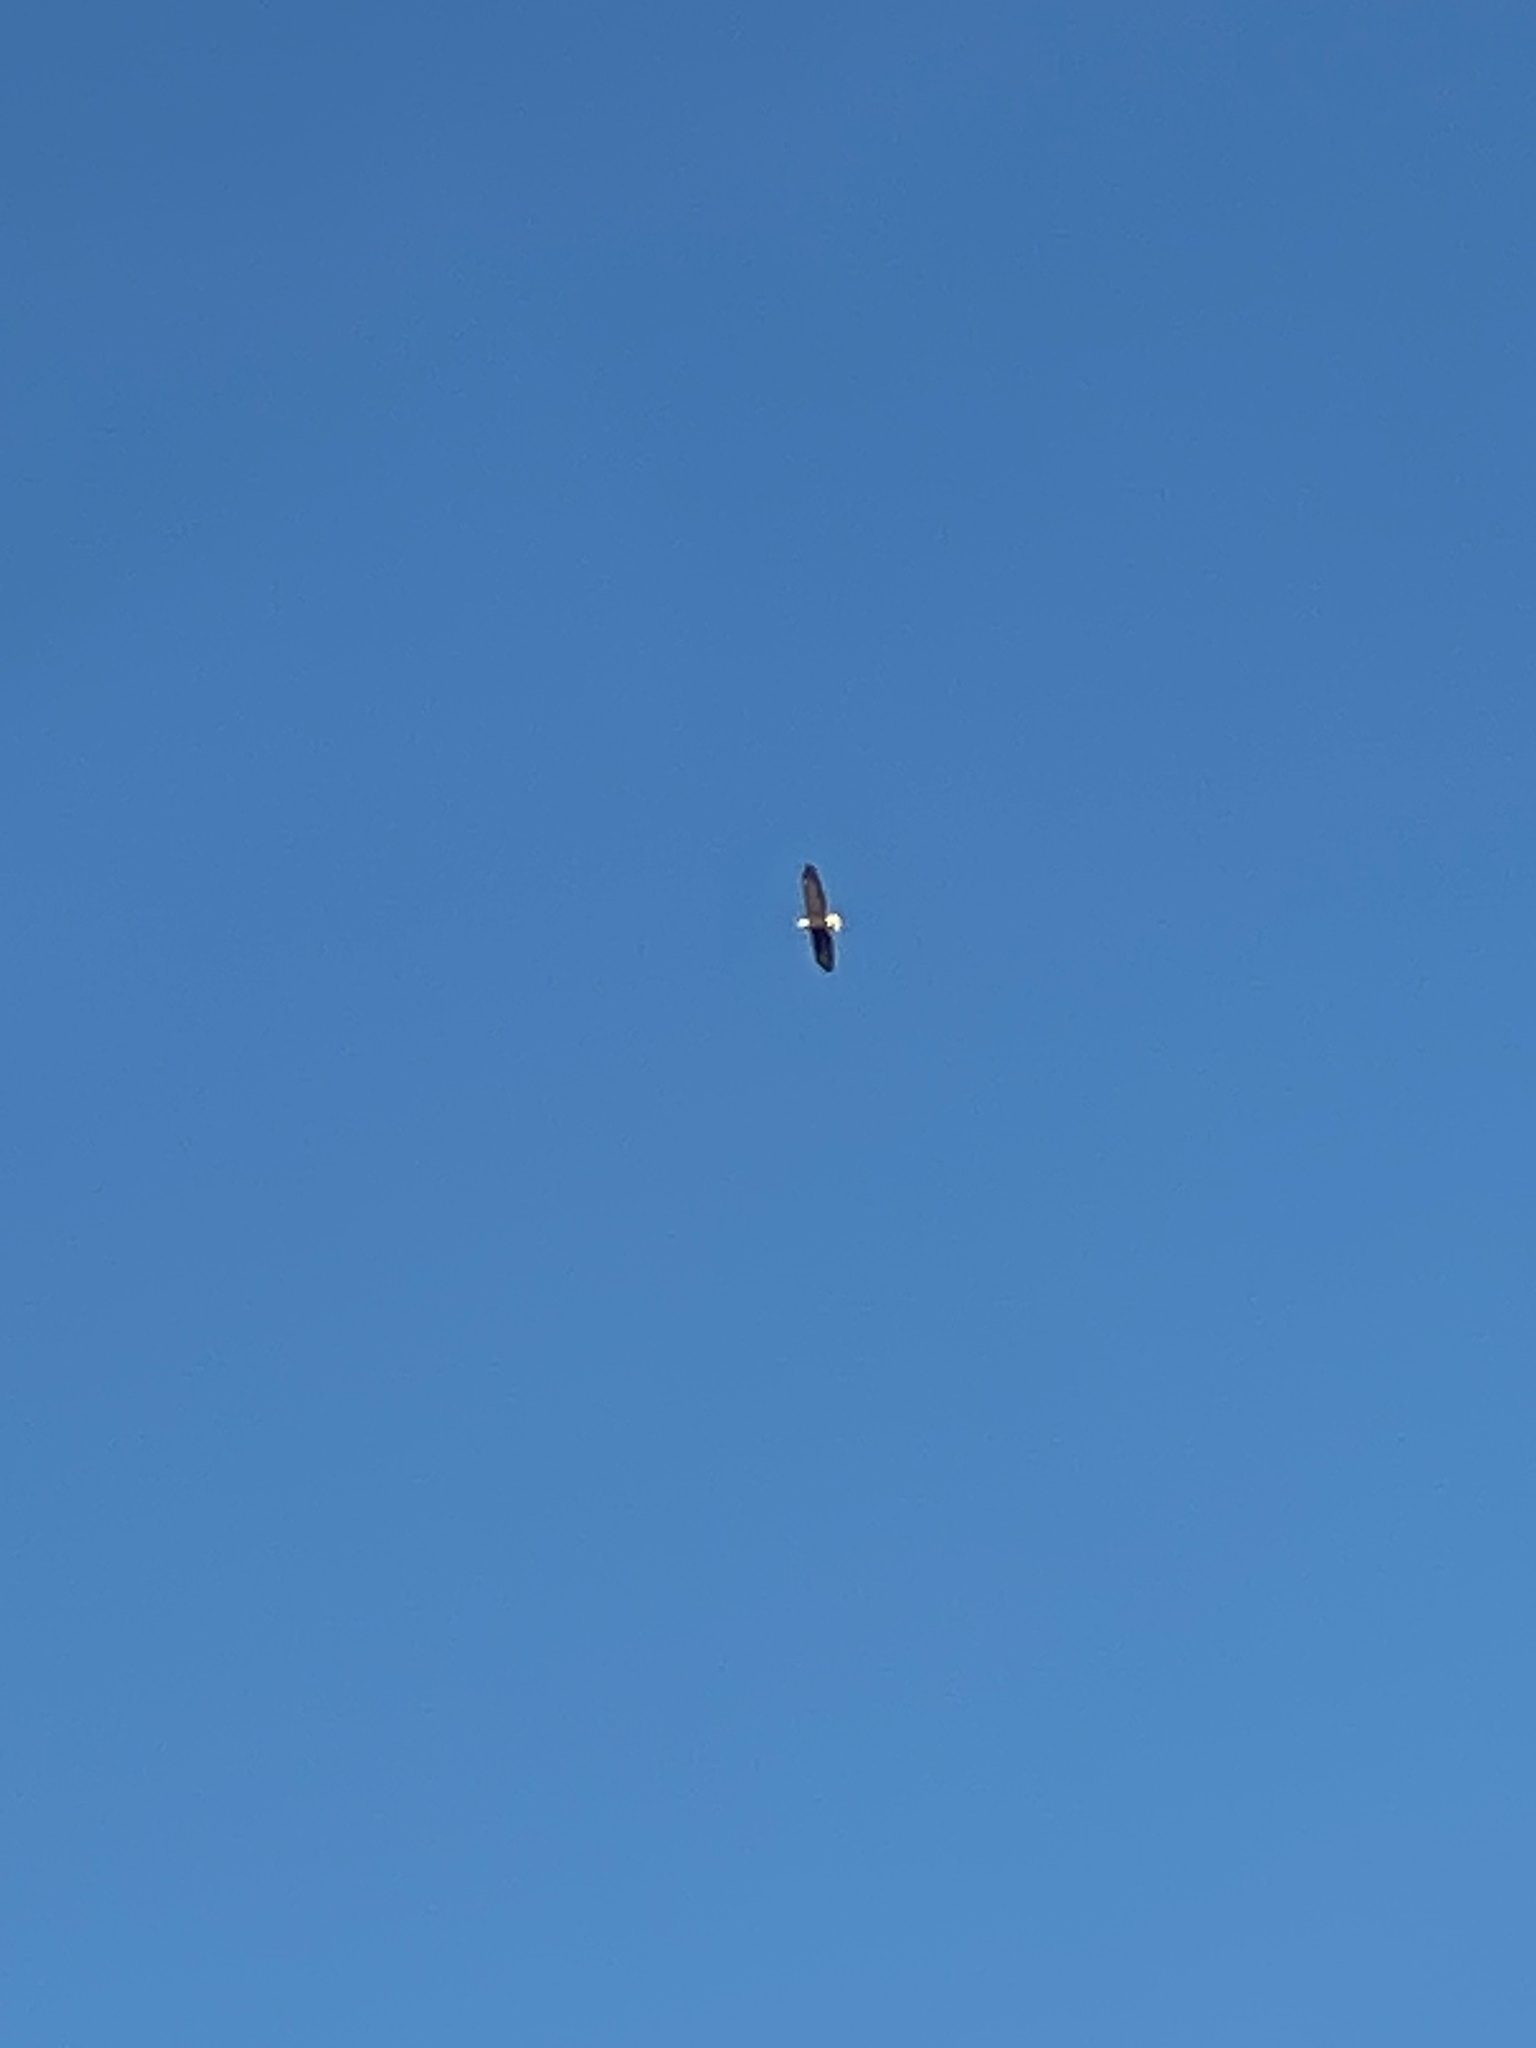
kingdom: Animalia
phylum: Chordata
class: Aves
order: Accipitriformes
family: Accipitridae
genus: Haliaeetus
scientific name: Haliaeetus leucocephalus
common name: Bald eagle
